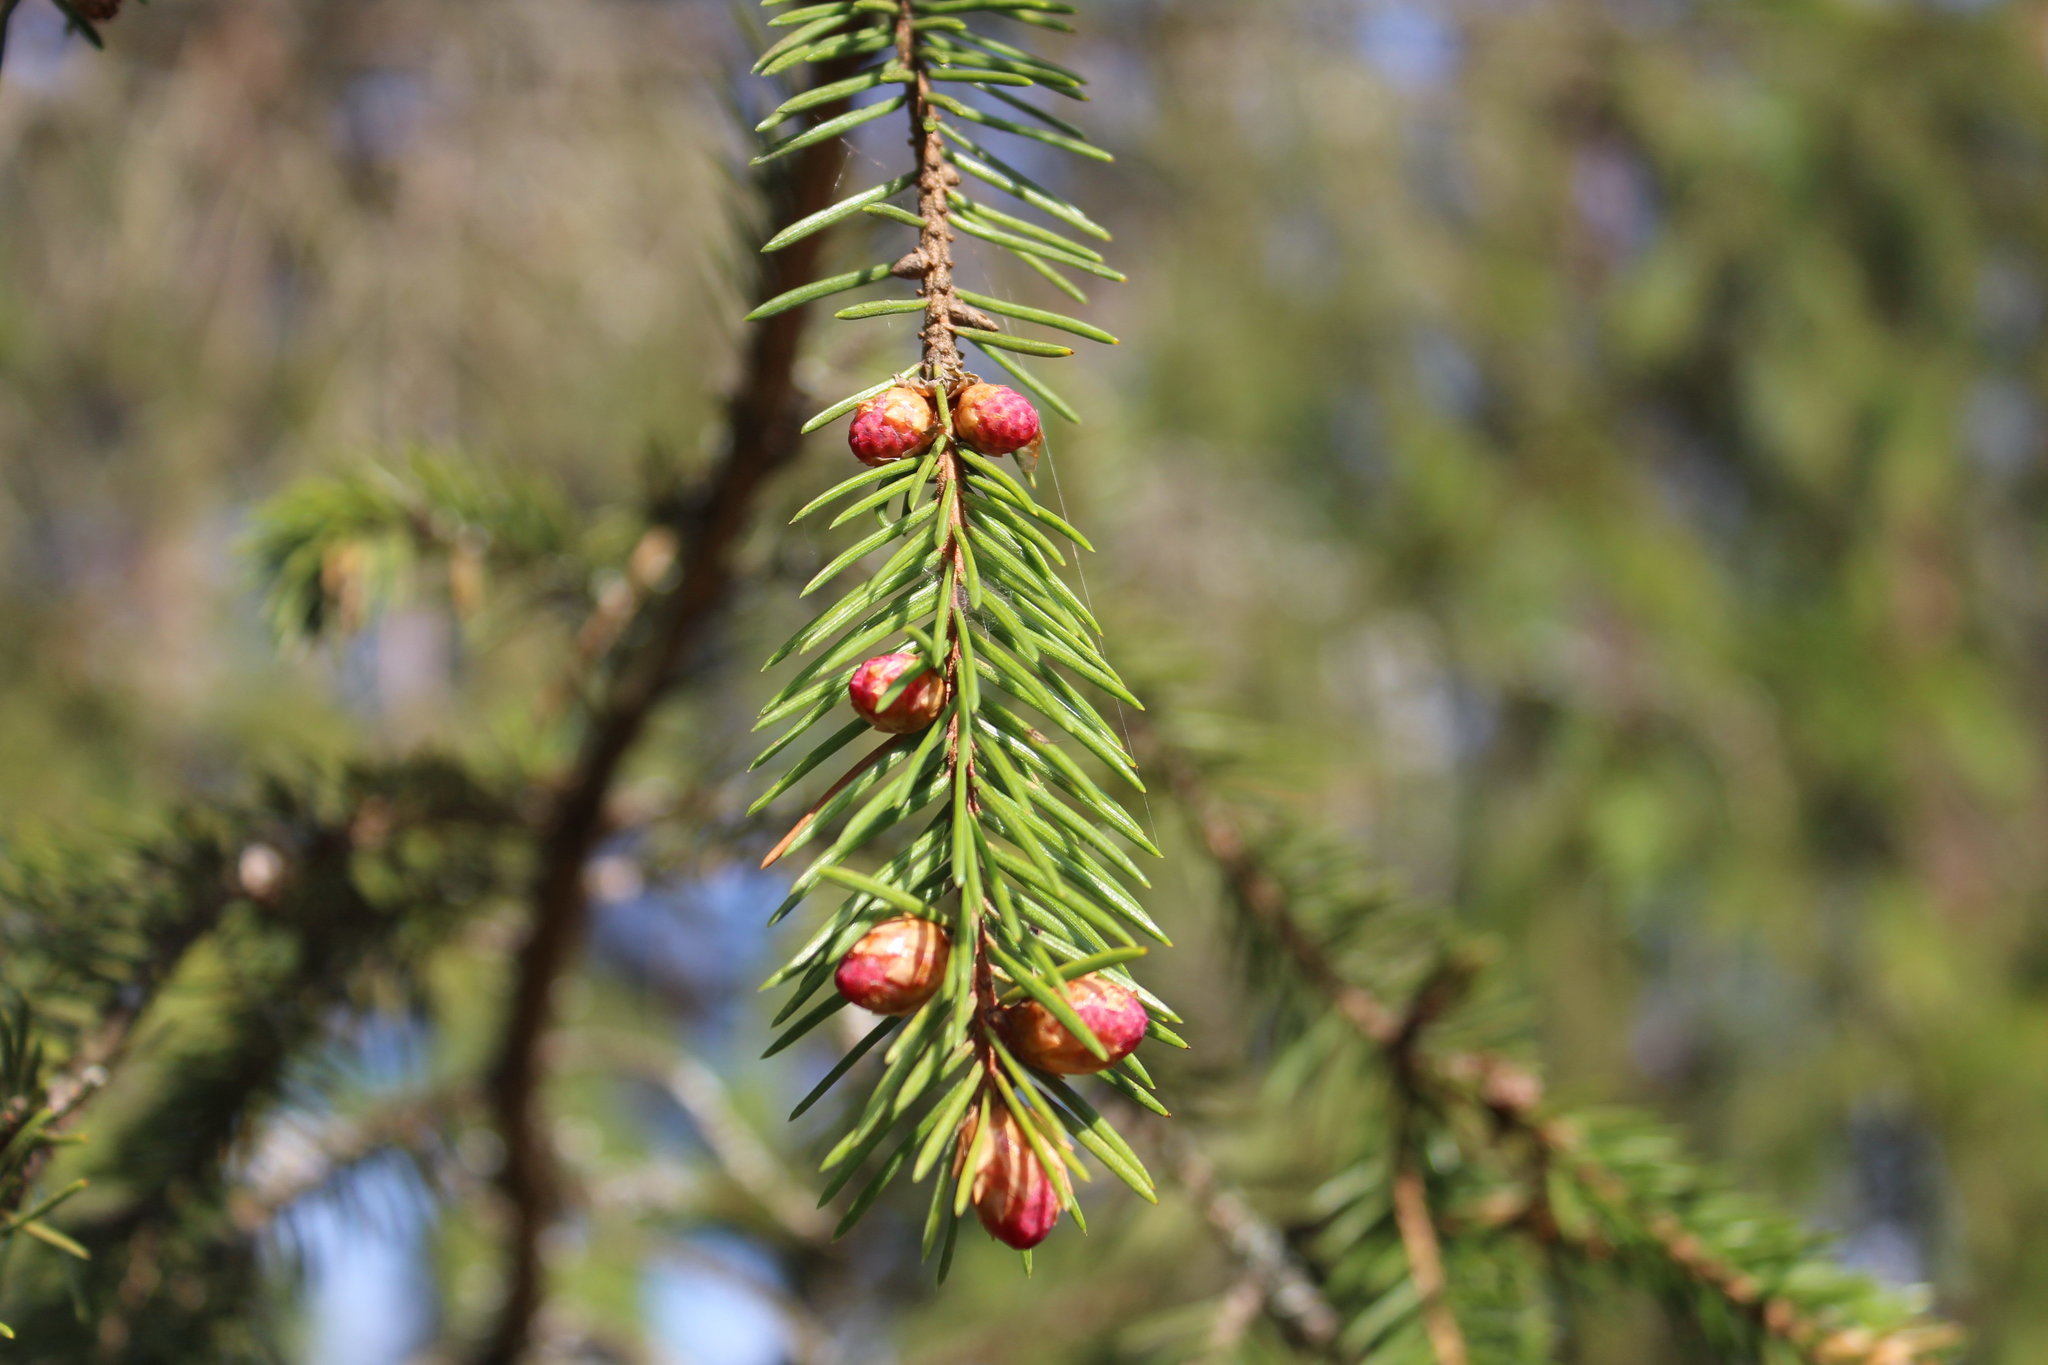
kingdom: Plantae
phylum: Tracheophyta
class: Pinopsida
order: Pinales
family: Pinaceae
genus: Picea
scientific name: Picea abies
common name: Norway spruce
